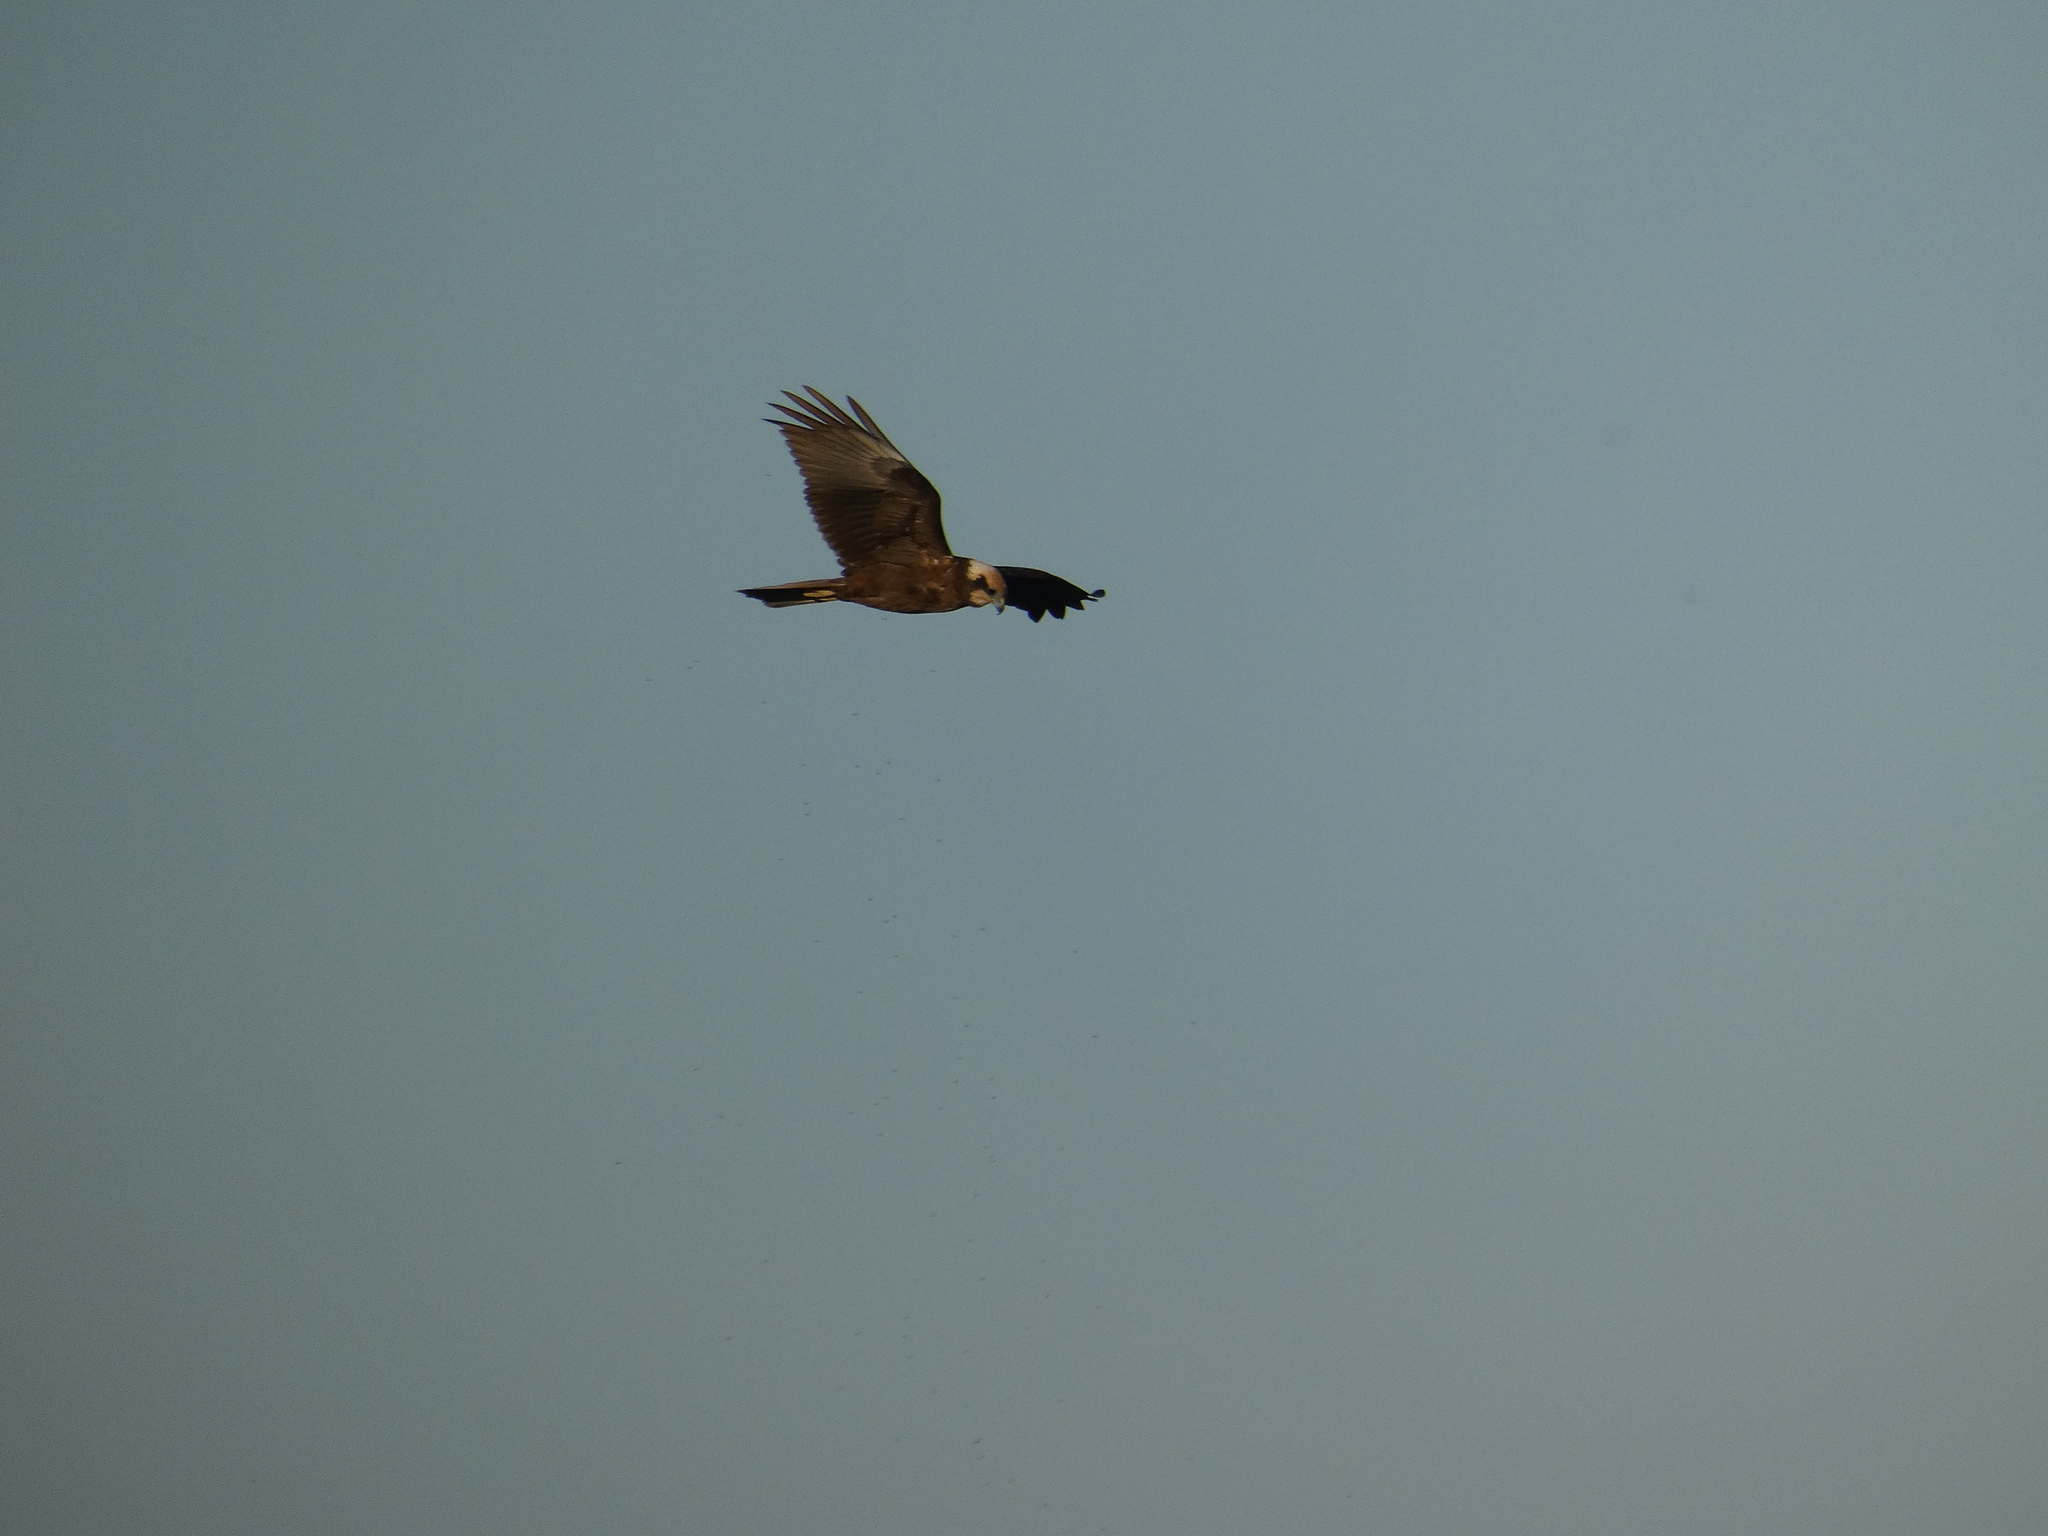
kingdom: Animalia
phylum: Chordata
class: Aves
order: Accipitriformes
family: Accipitridae
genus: Circus
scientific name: Circus aeruginosus
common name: Western marsh harrier
